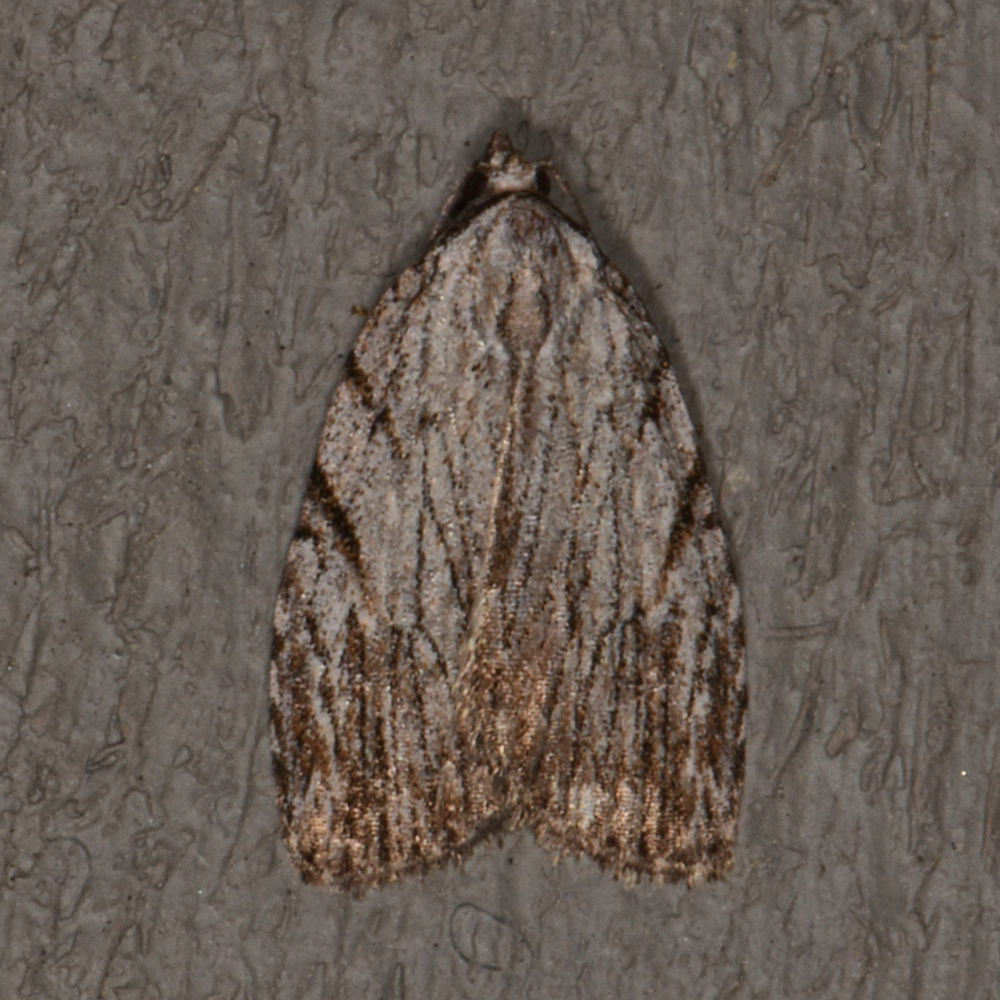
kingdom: Animalia
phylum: Arthropoda
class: Insecta
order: Lepidoptera
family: Noctuidae
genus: Balsa
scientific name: Balsa tristrigella
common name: Three-lined balsa moth
